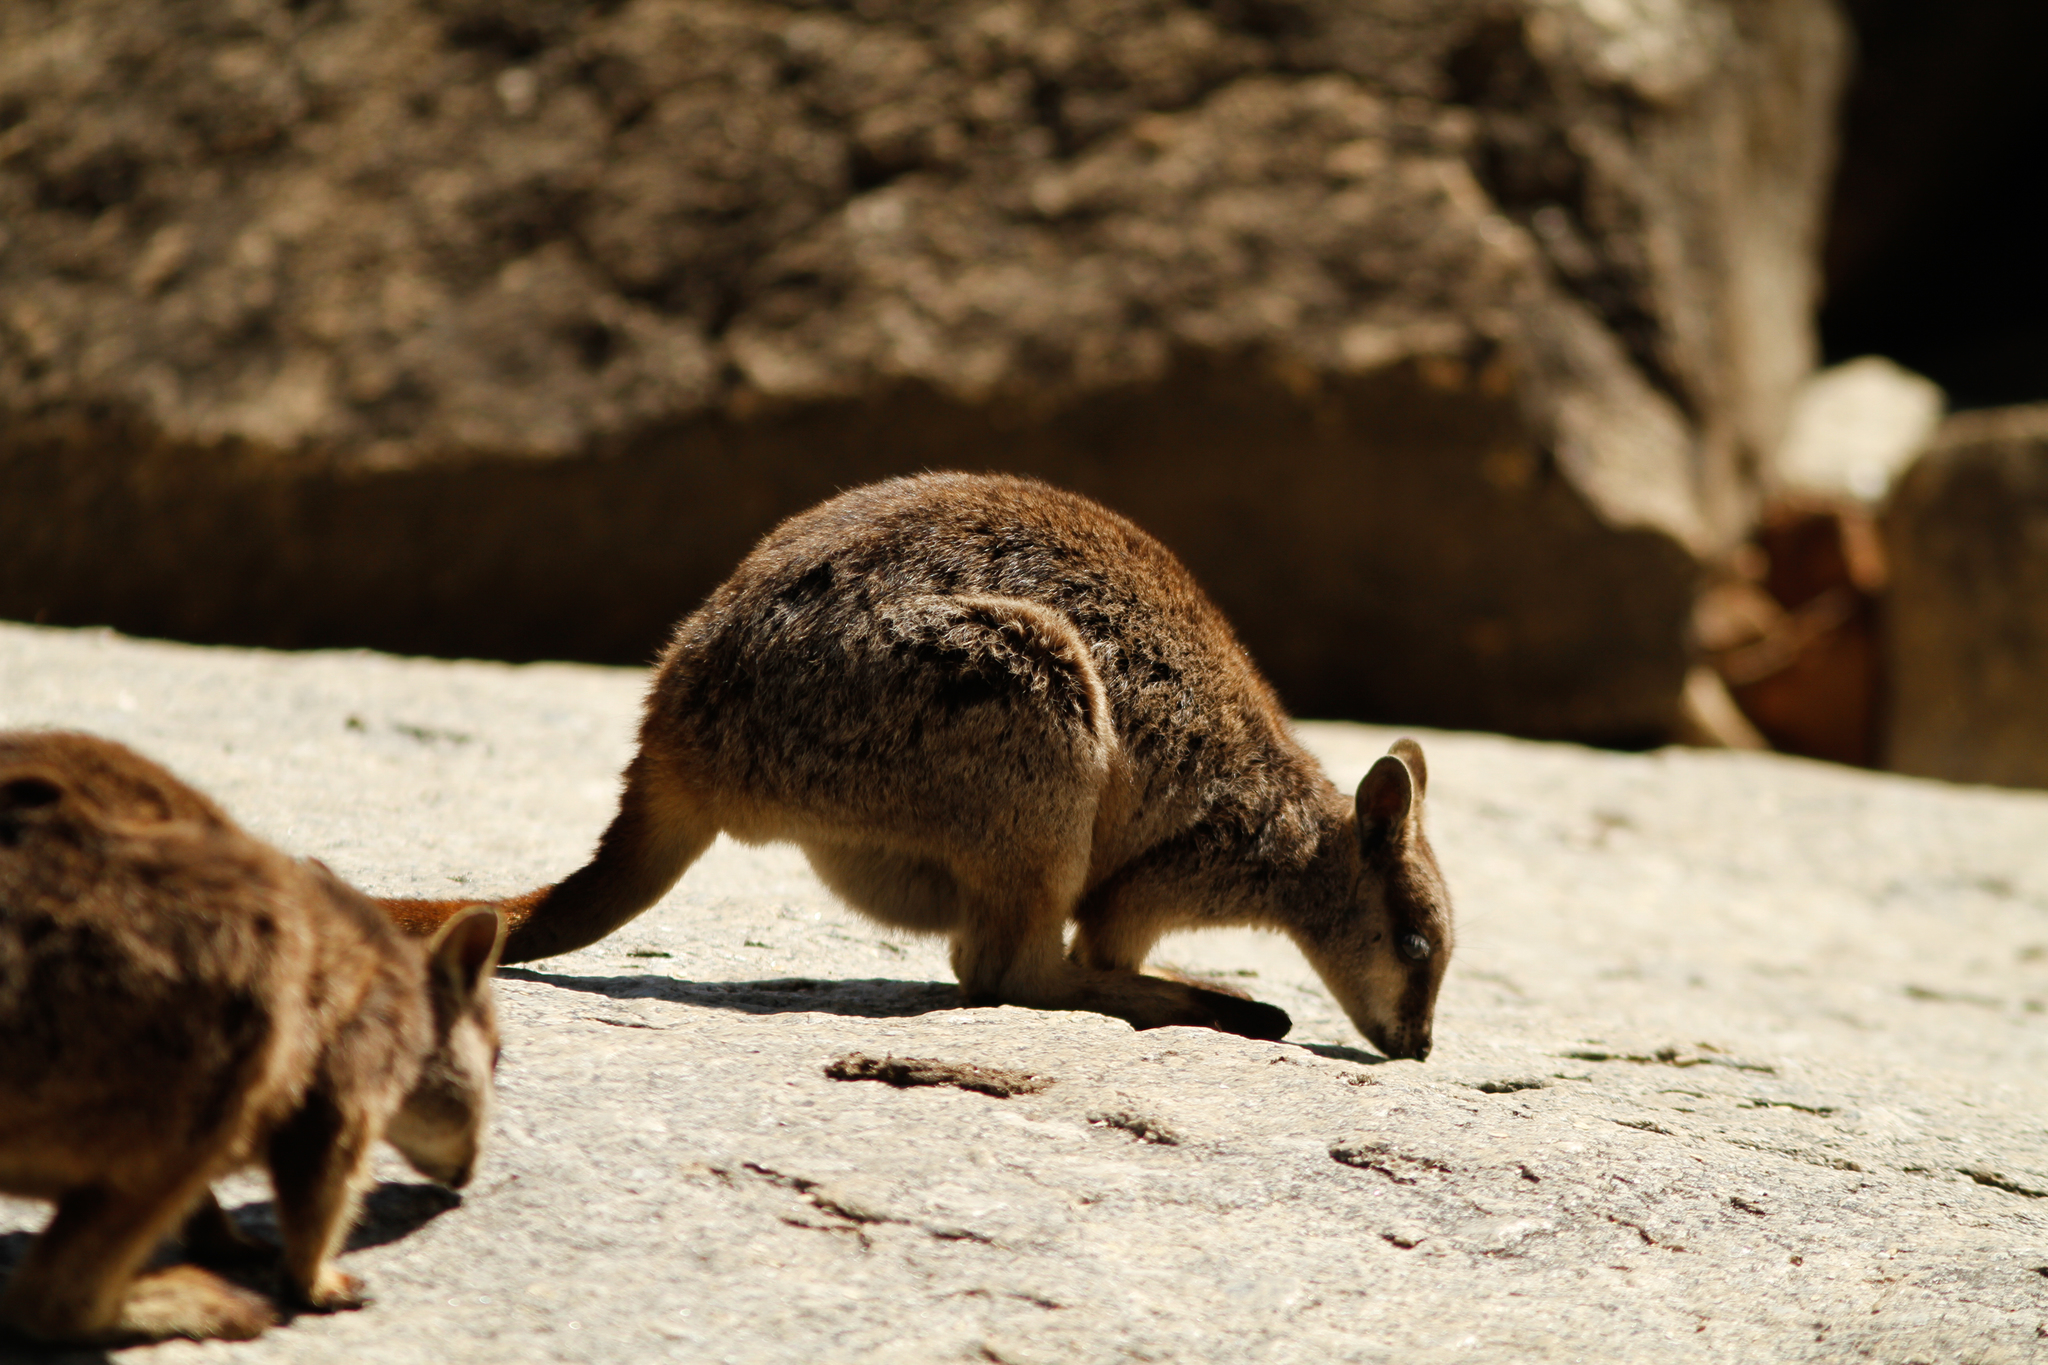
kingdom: Animalia
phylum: Chordata
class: Mammalia
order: Diprotodontia
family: Macropodidae
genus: Petrogale
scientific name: Petrogale mareeba
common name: Mareeba rock-wallaby
